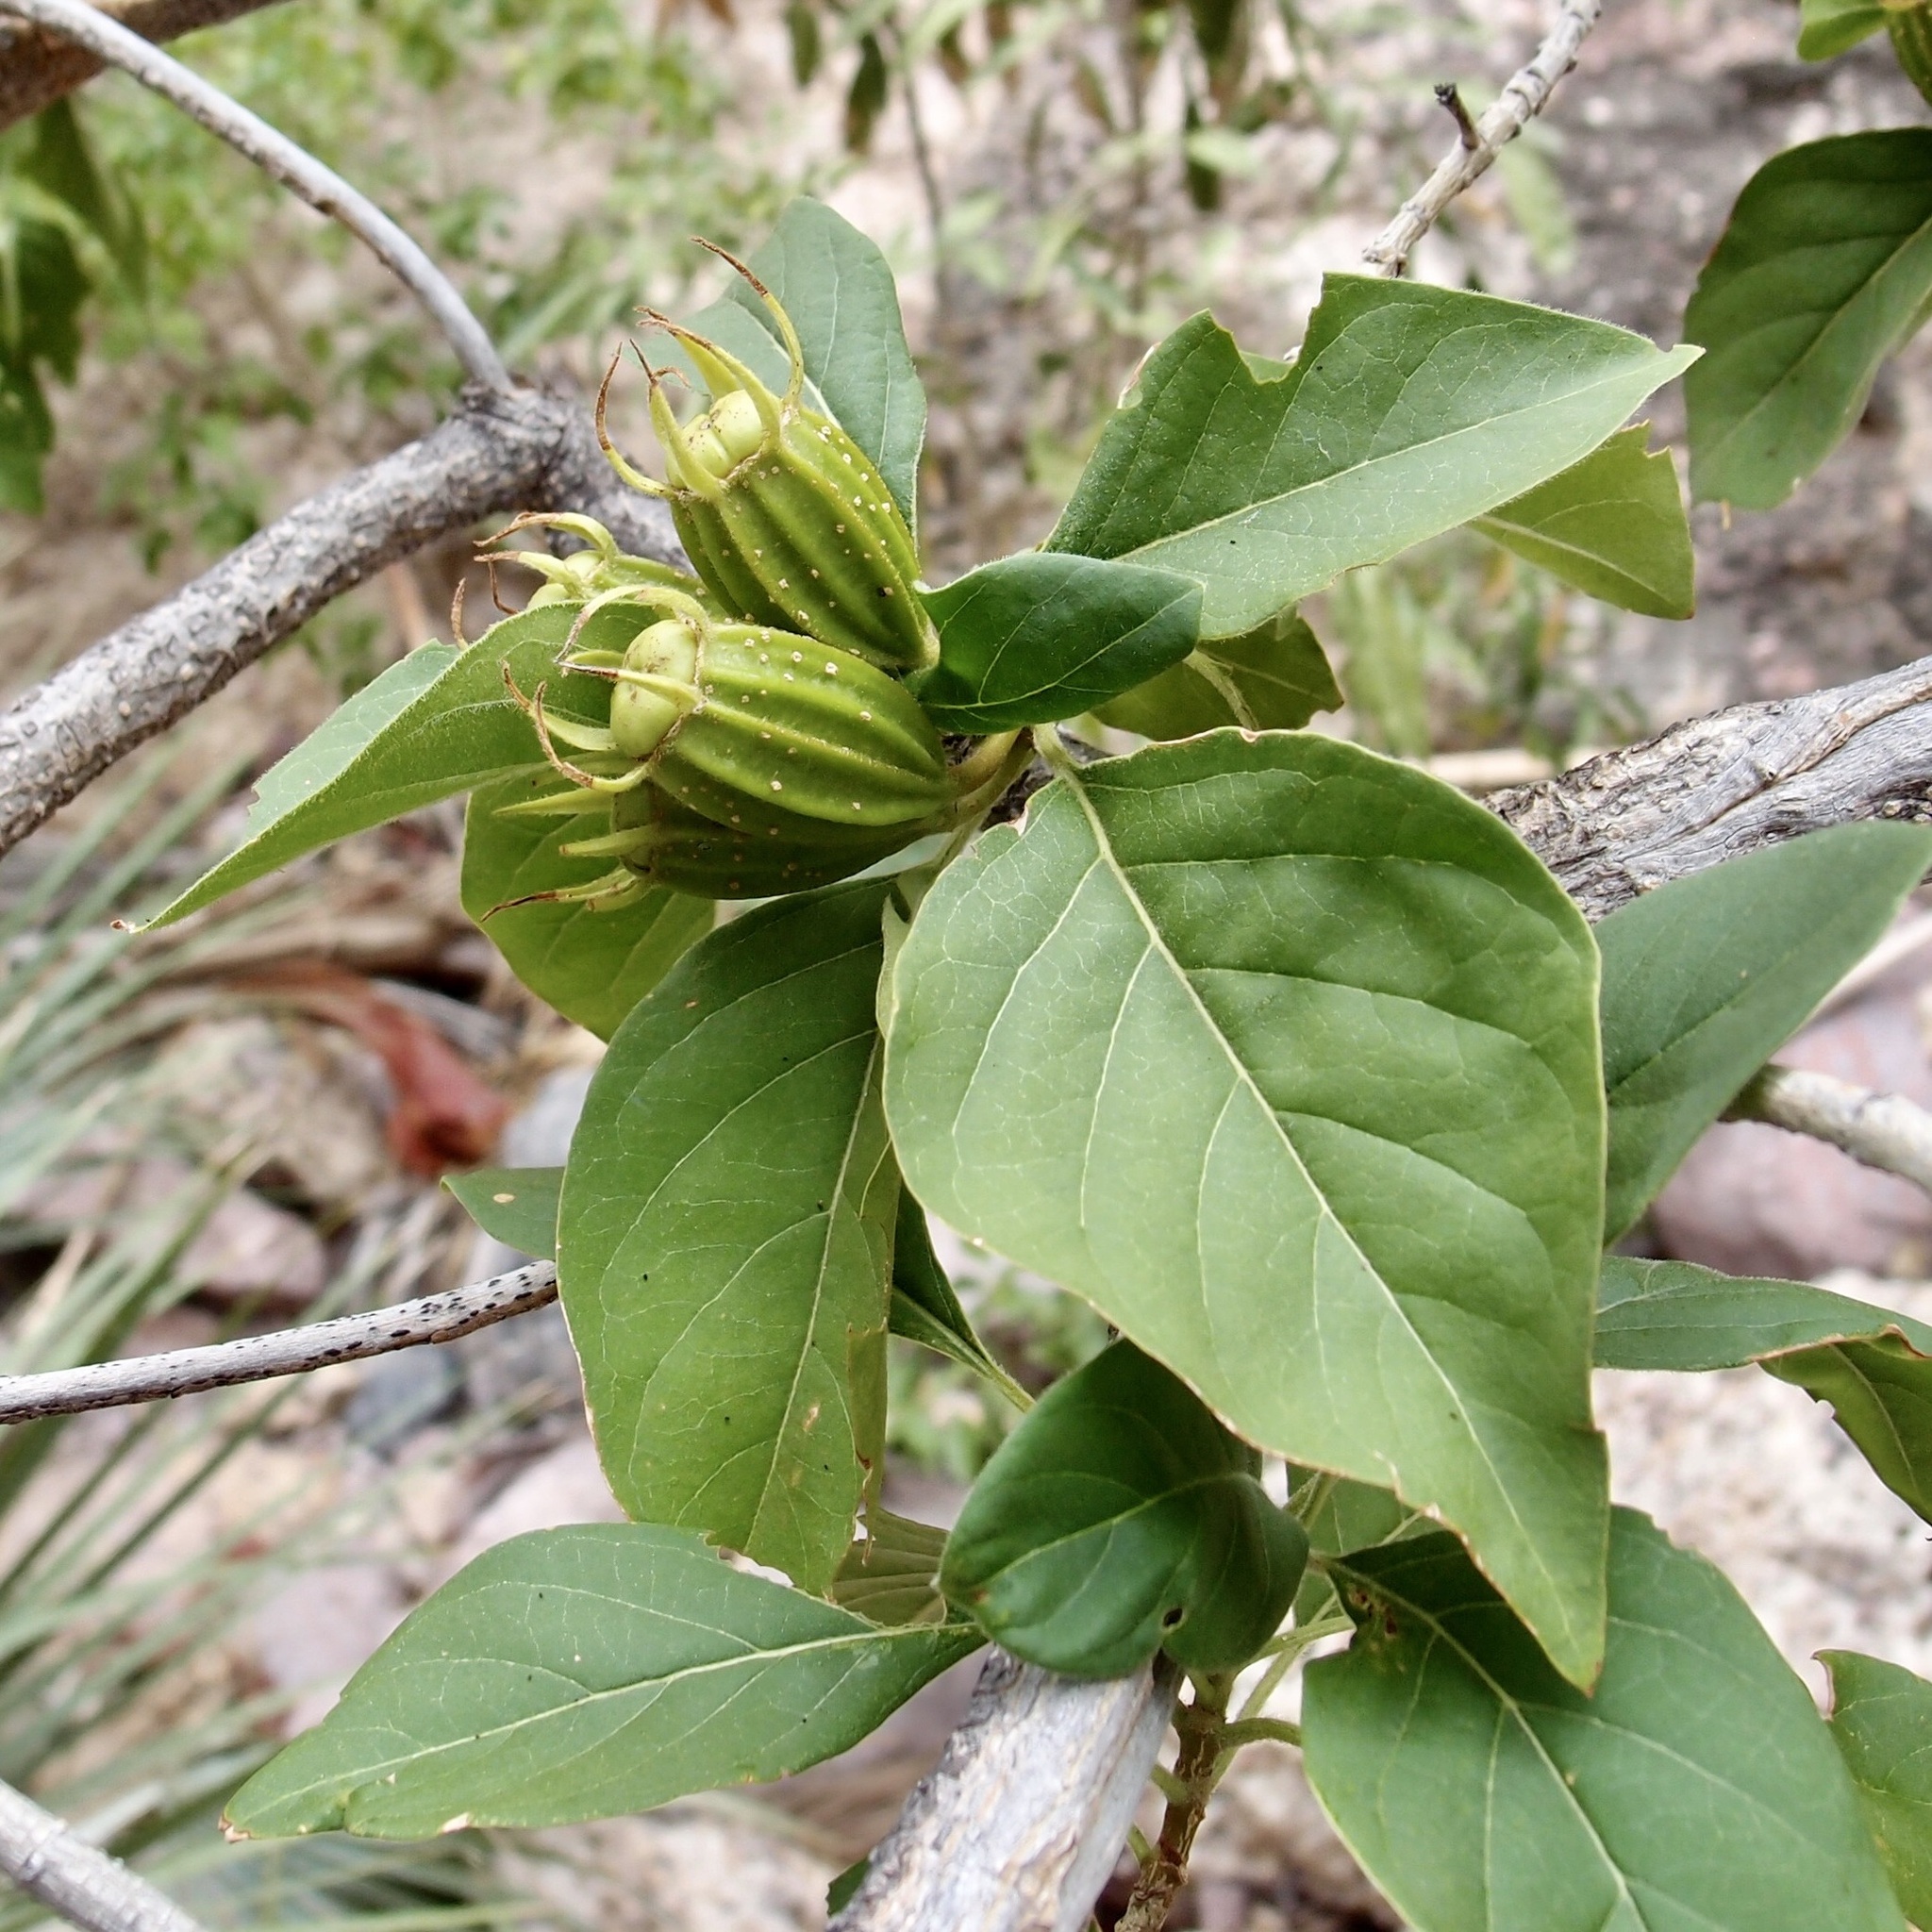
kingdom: Plantae
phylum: Tracheophyta
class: Magnoliopsida
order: Gentianales
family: Rubiaceae
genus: Hintonia
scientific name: Hintonia latiflora
